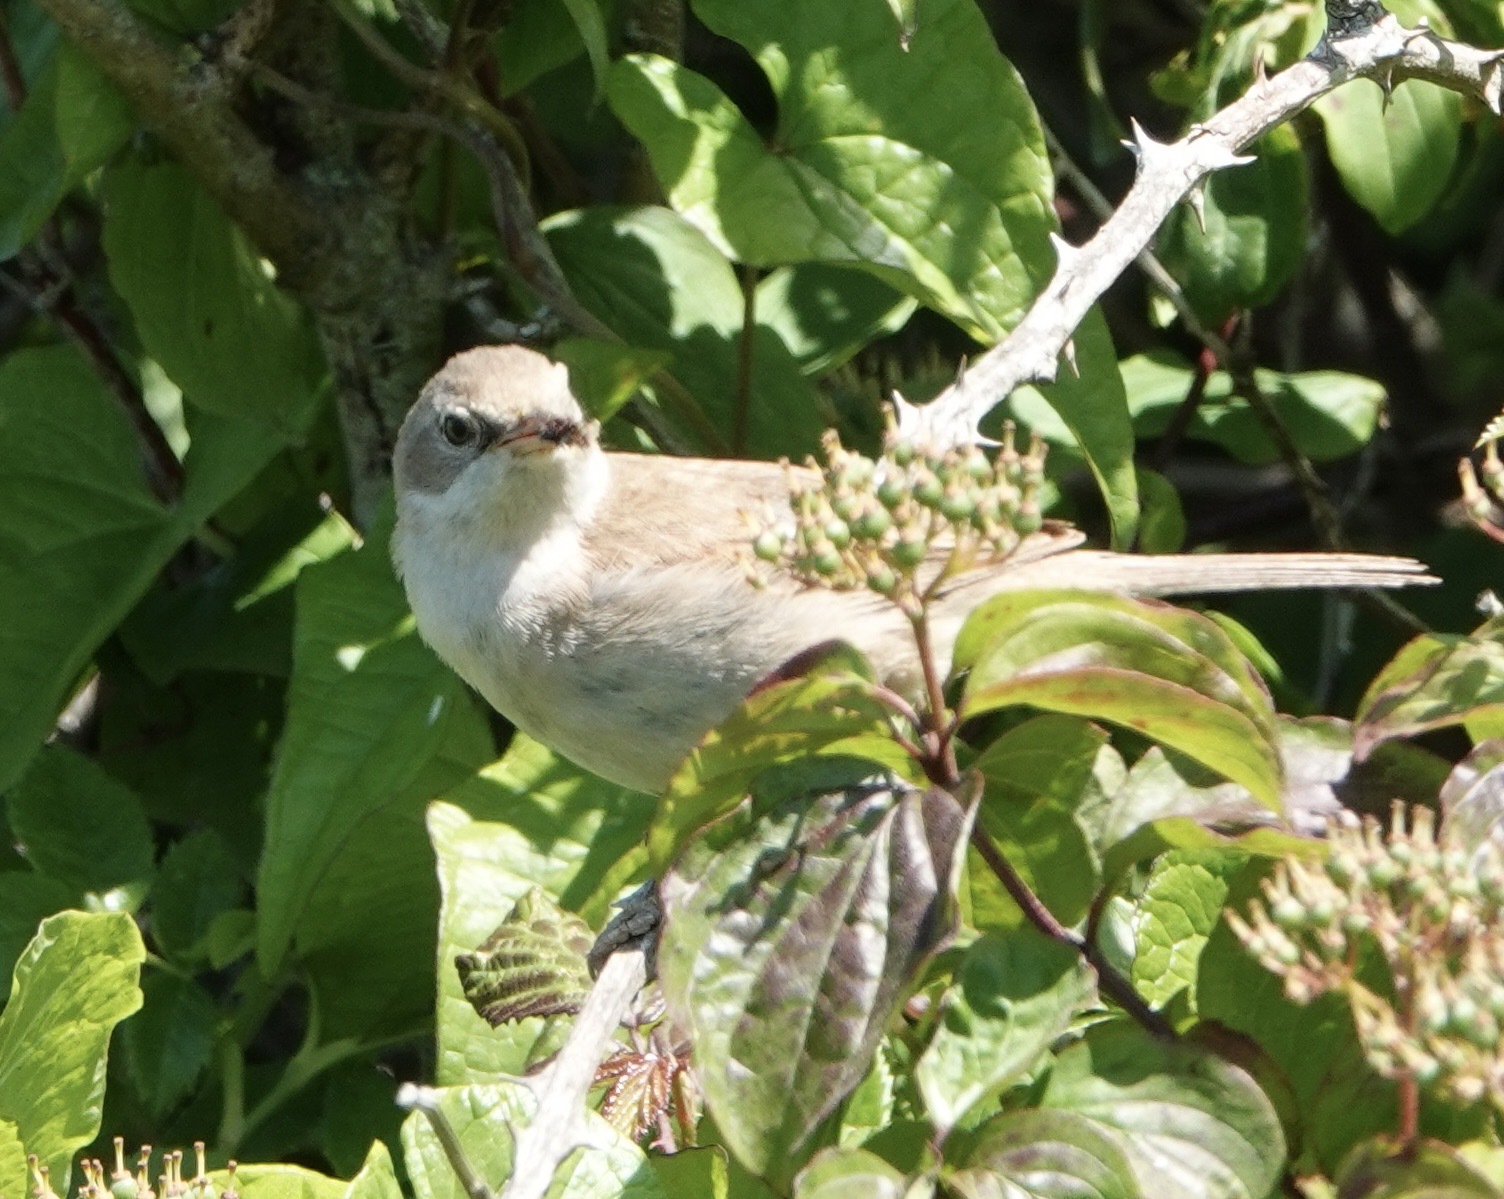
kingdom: Animalia
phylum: Chordata
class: Aves
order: Passeriformes
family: Sylviidae
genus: Sylvia
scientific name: Sylvia communis
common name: Common whitethroat
